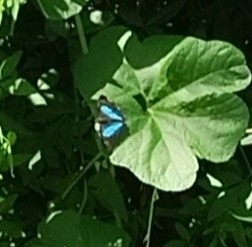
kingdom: Animalia
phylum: Arthropoda
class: Insecta
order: Lepidoptera
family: Nymphalidae
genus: Doxocopa
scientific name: Doxocopa laurentia
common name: Turquoise emperor
